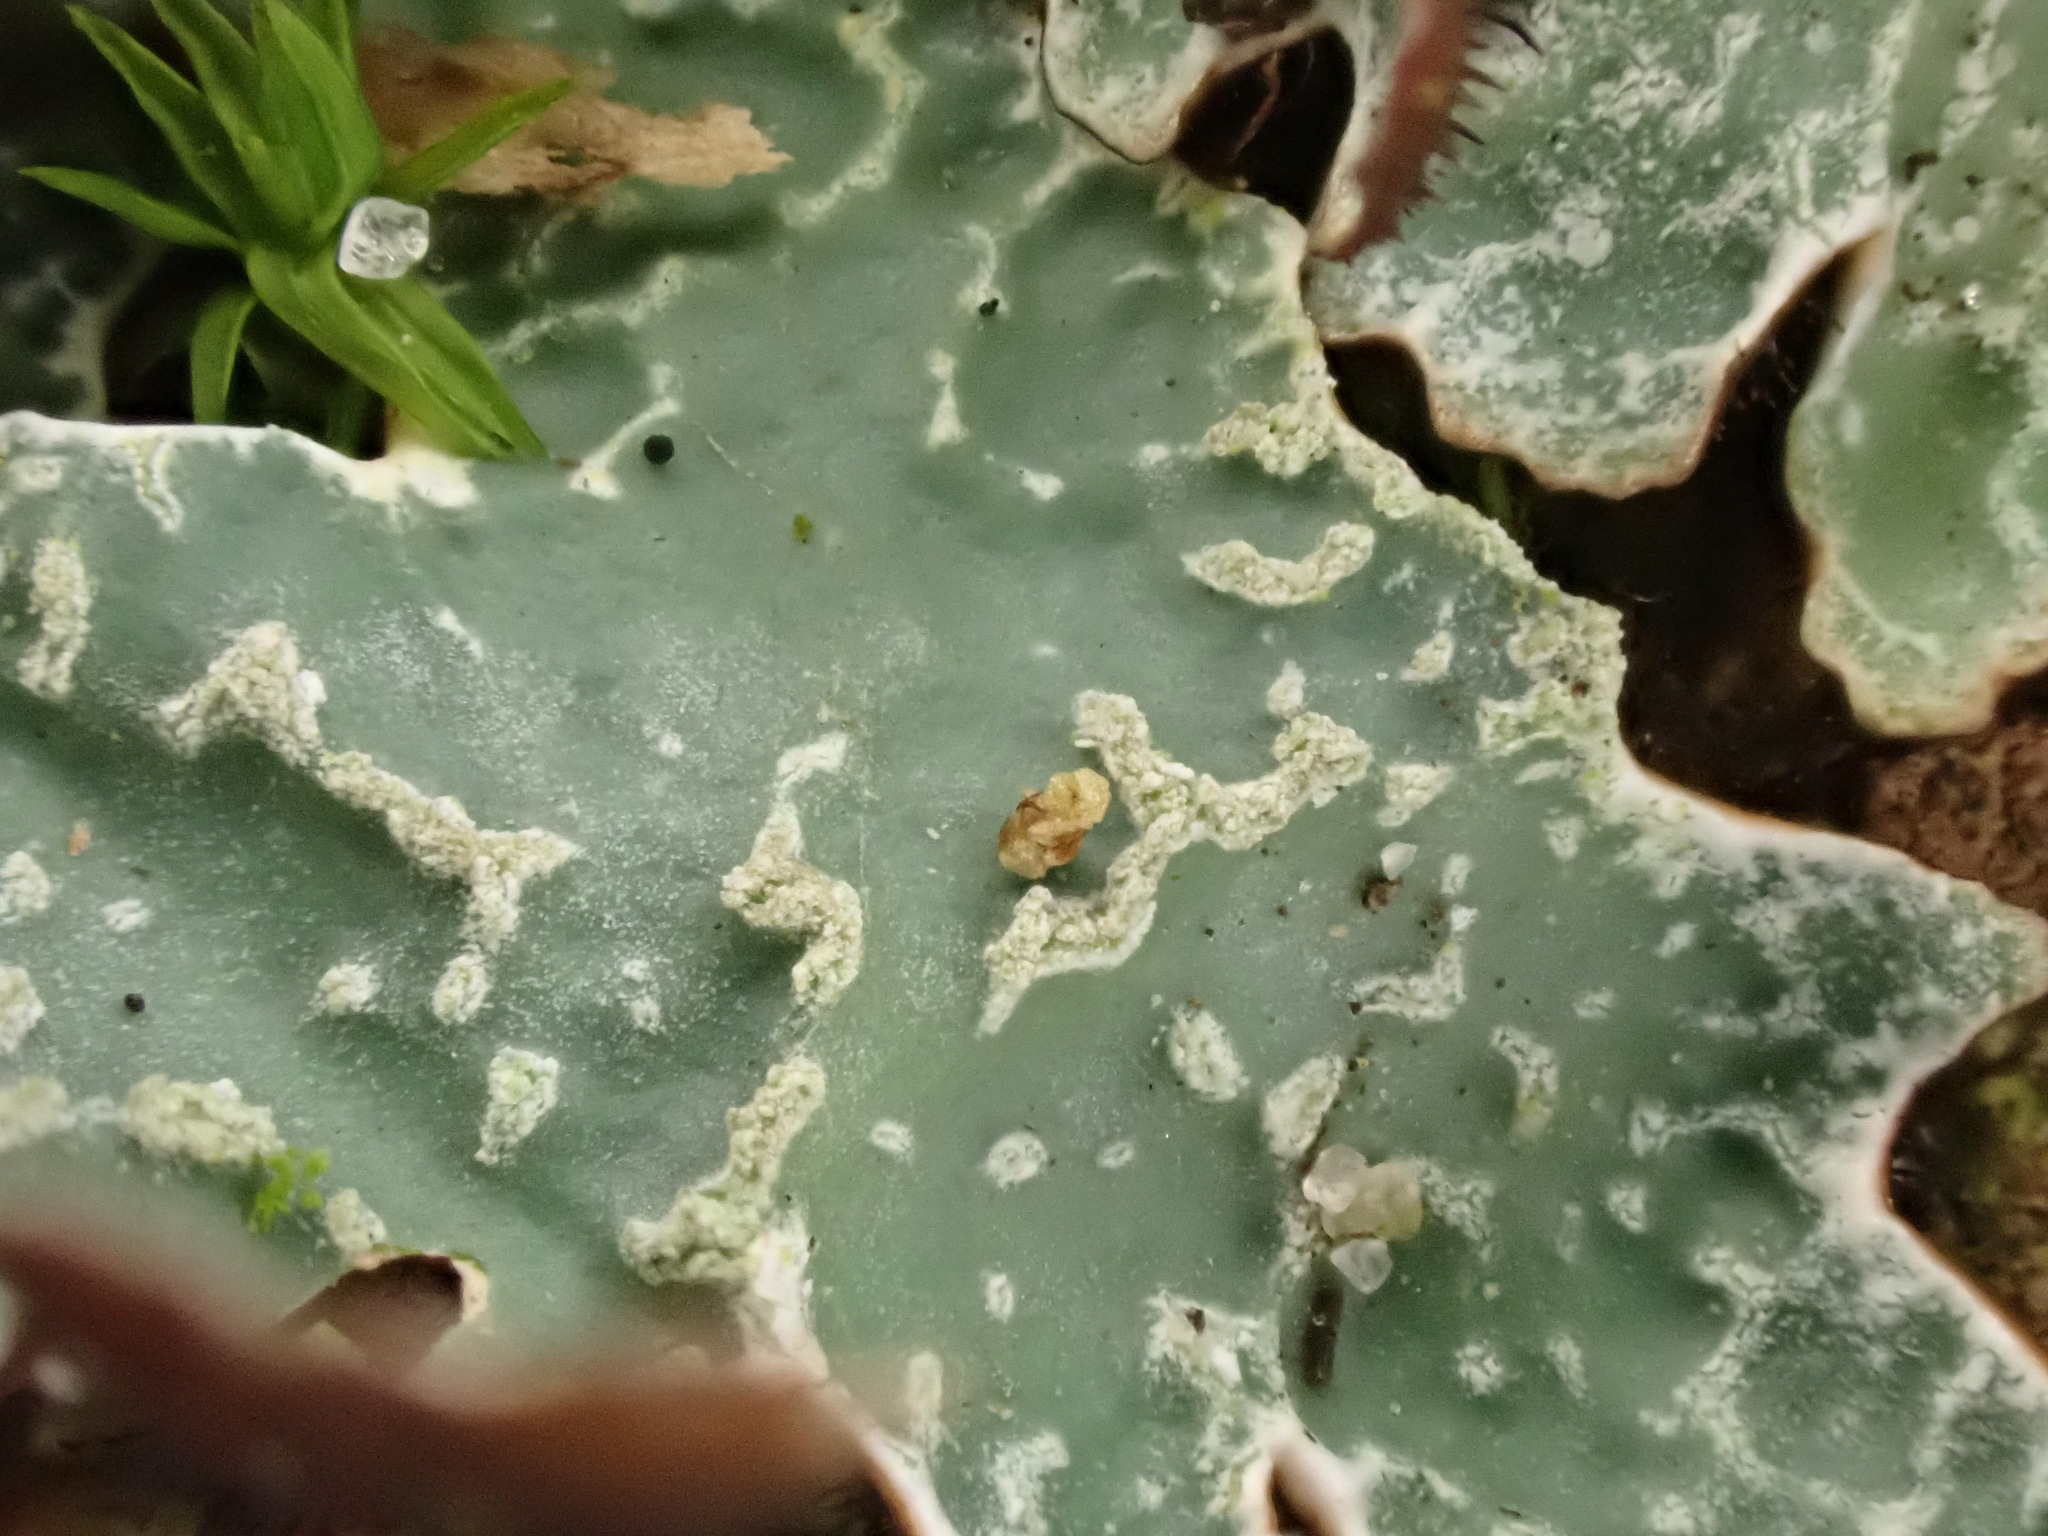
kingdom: Fungi
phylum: Ascomycota
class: Lecanoromycetes
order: Lecanorales
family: Parmeliaceae
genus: Parmelia
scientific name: Parmelia sulcata
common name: Netted shield lichen
